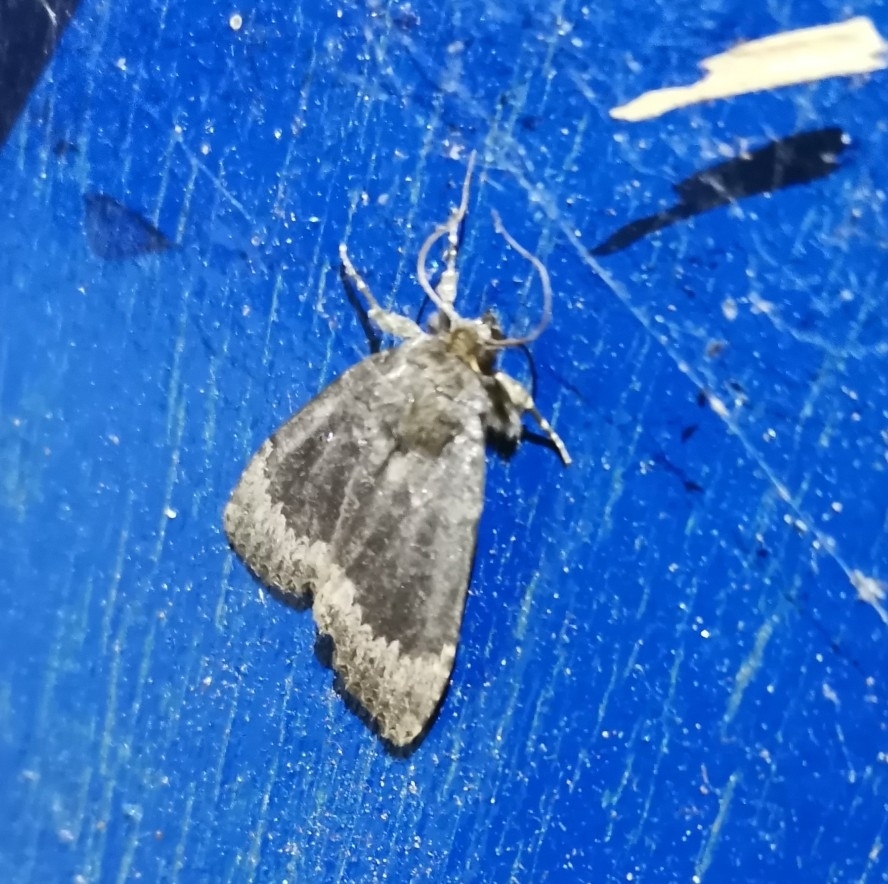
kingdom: Animalia
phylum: Arthropoda
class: Insecta
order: Lepidoptera
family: Noctuidae
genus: Amphipyra
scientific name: Amphipyra perflua
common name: Larger pale-tipped black moth
